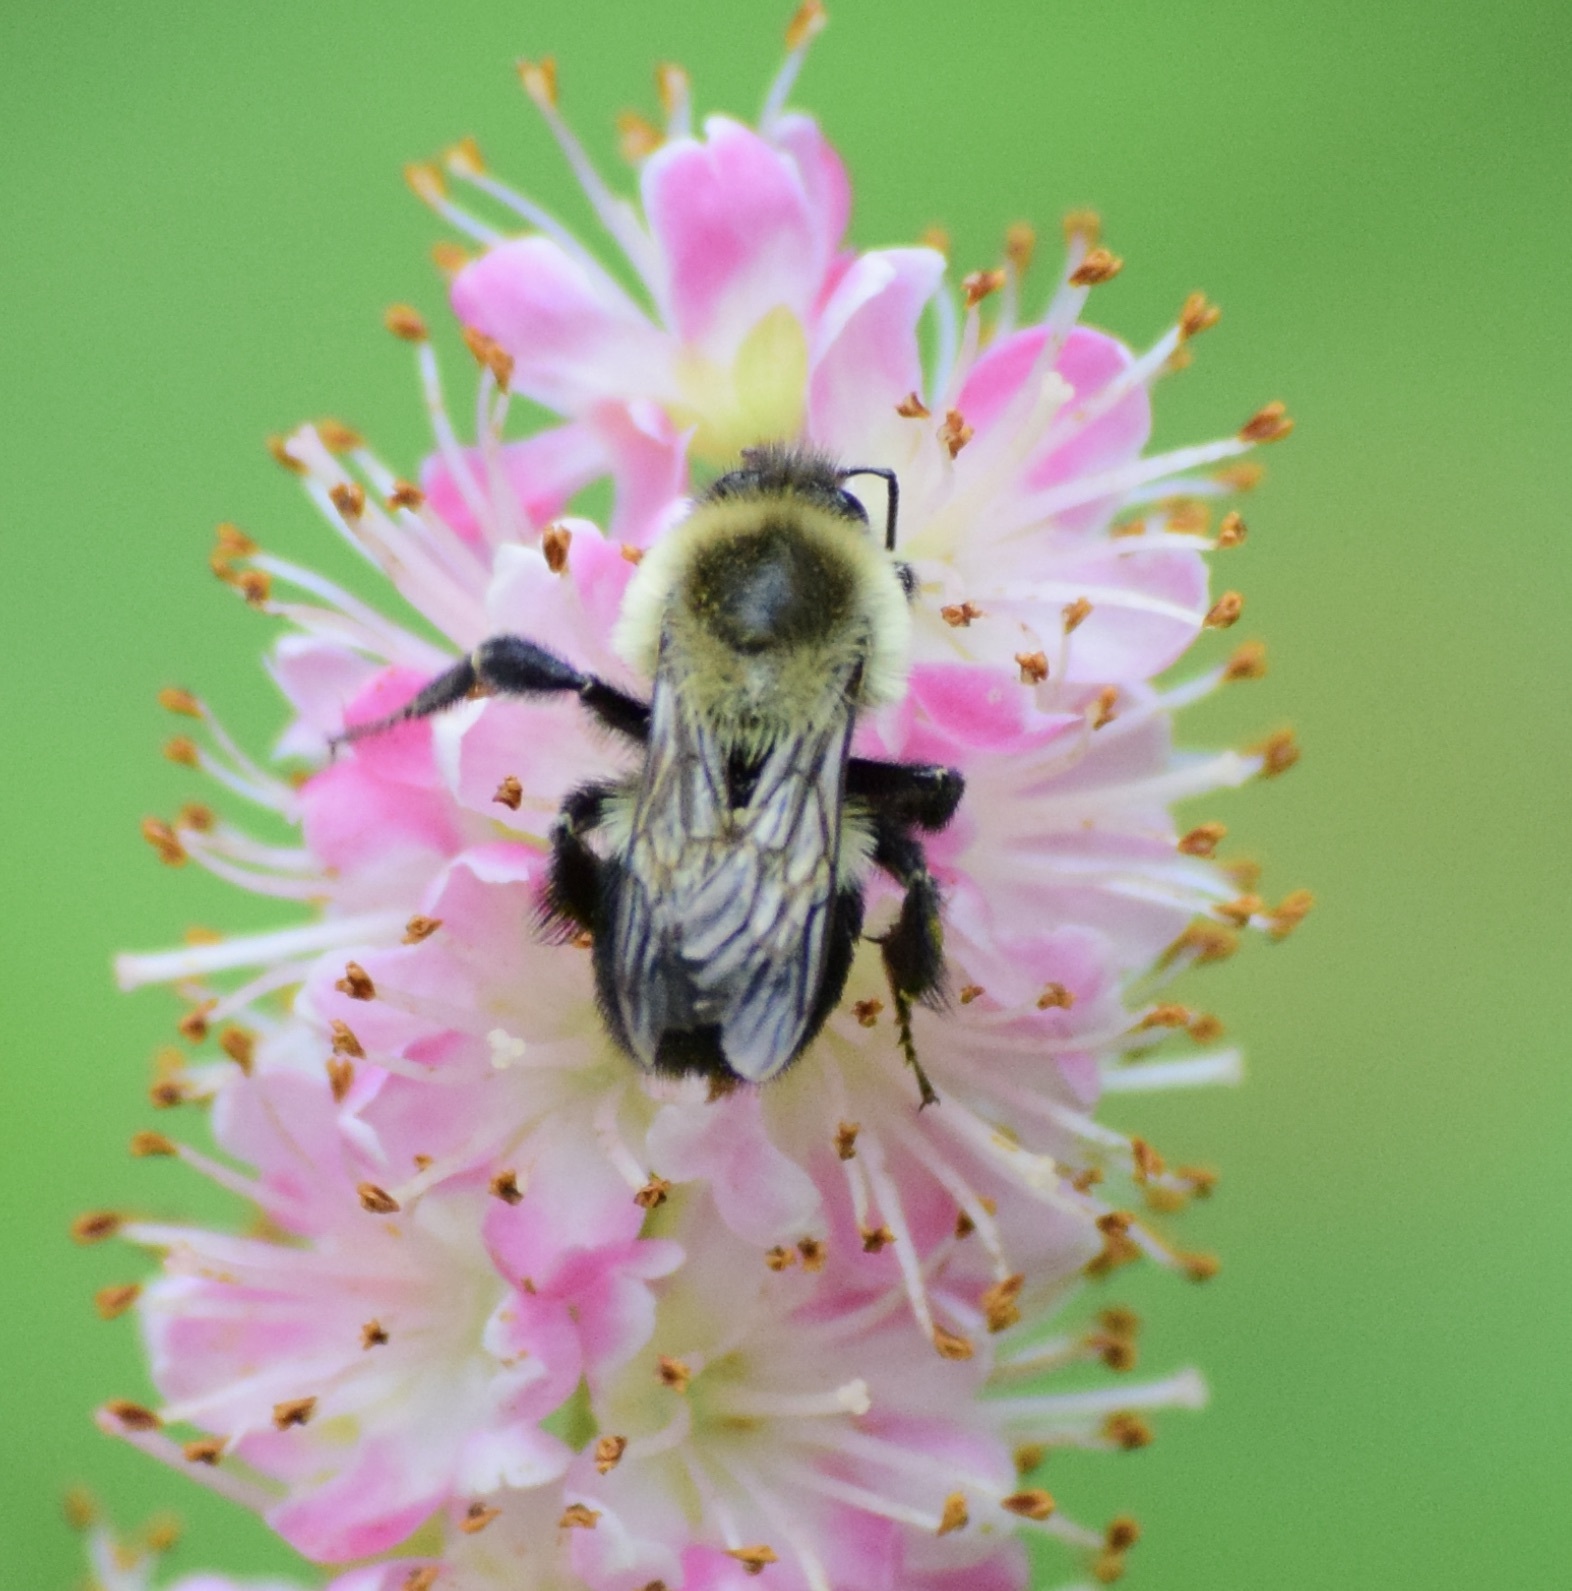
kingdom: Animalia
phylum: Arthropoda
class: Insecta
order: Hymenoptera
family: Apidae
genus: Bombus
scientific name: Bombus impatiens
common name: Common eastern bumble bee
